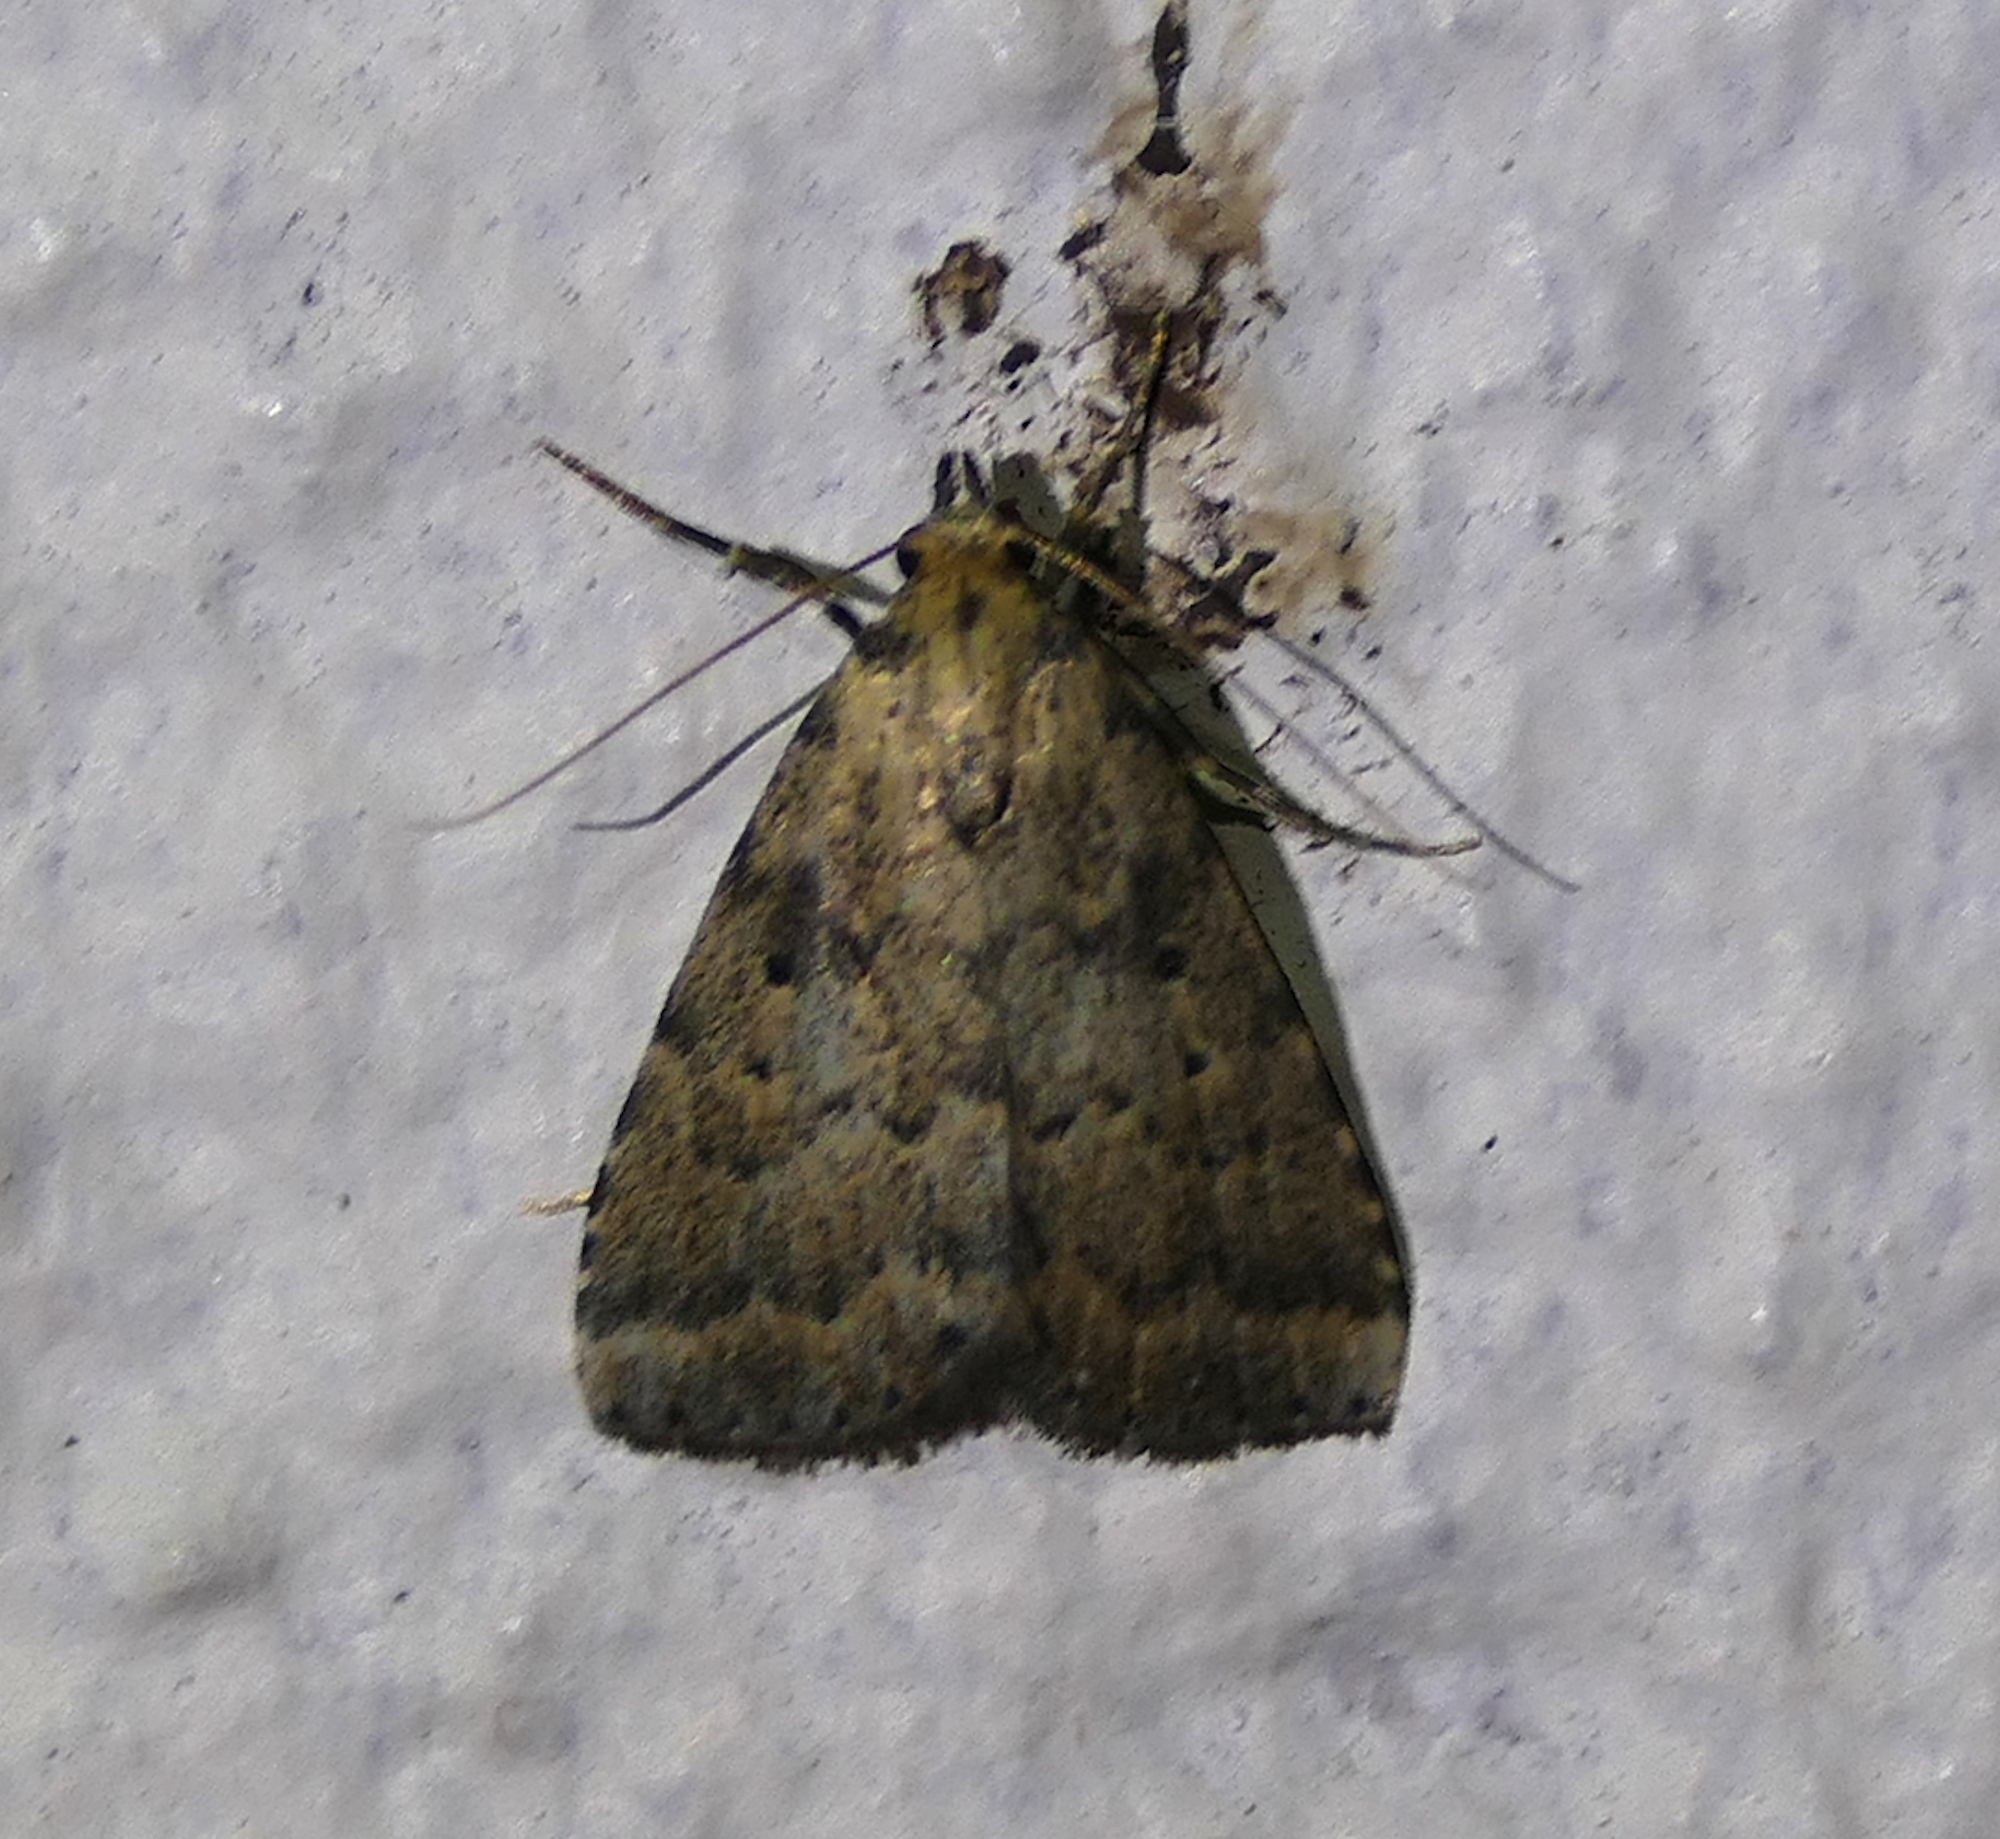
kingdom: Animalia
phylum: Arthropoda
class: Insecta
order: Lepidoptera
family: Erebidae
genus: Arugisa
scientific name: Arugisa lutea
